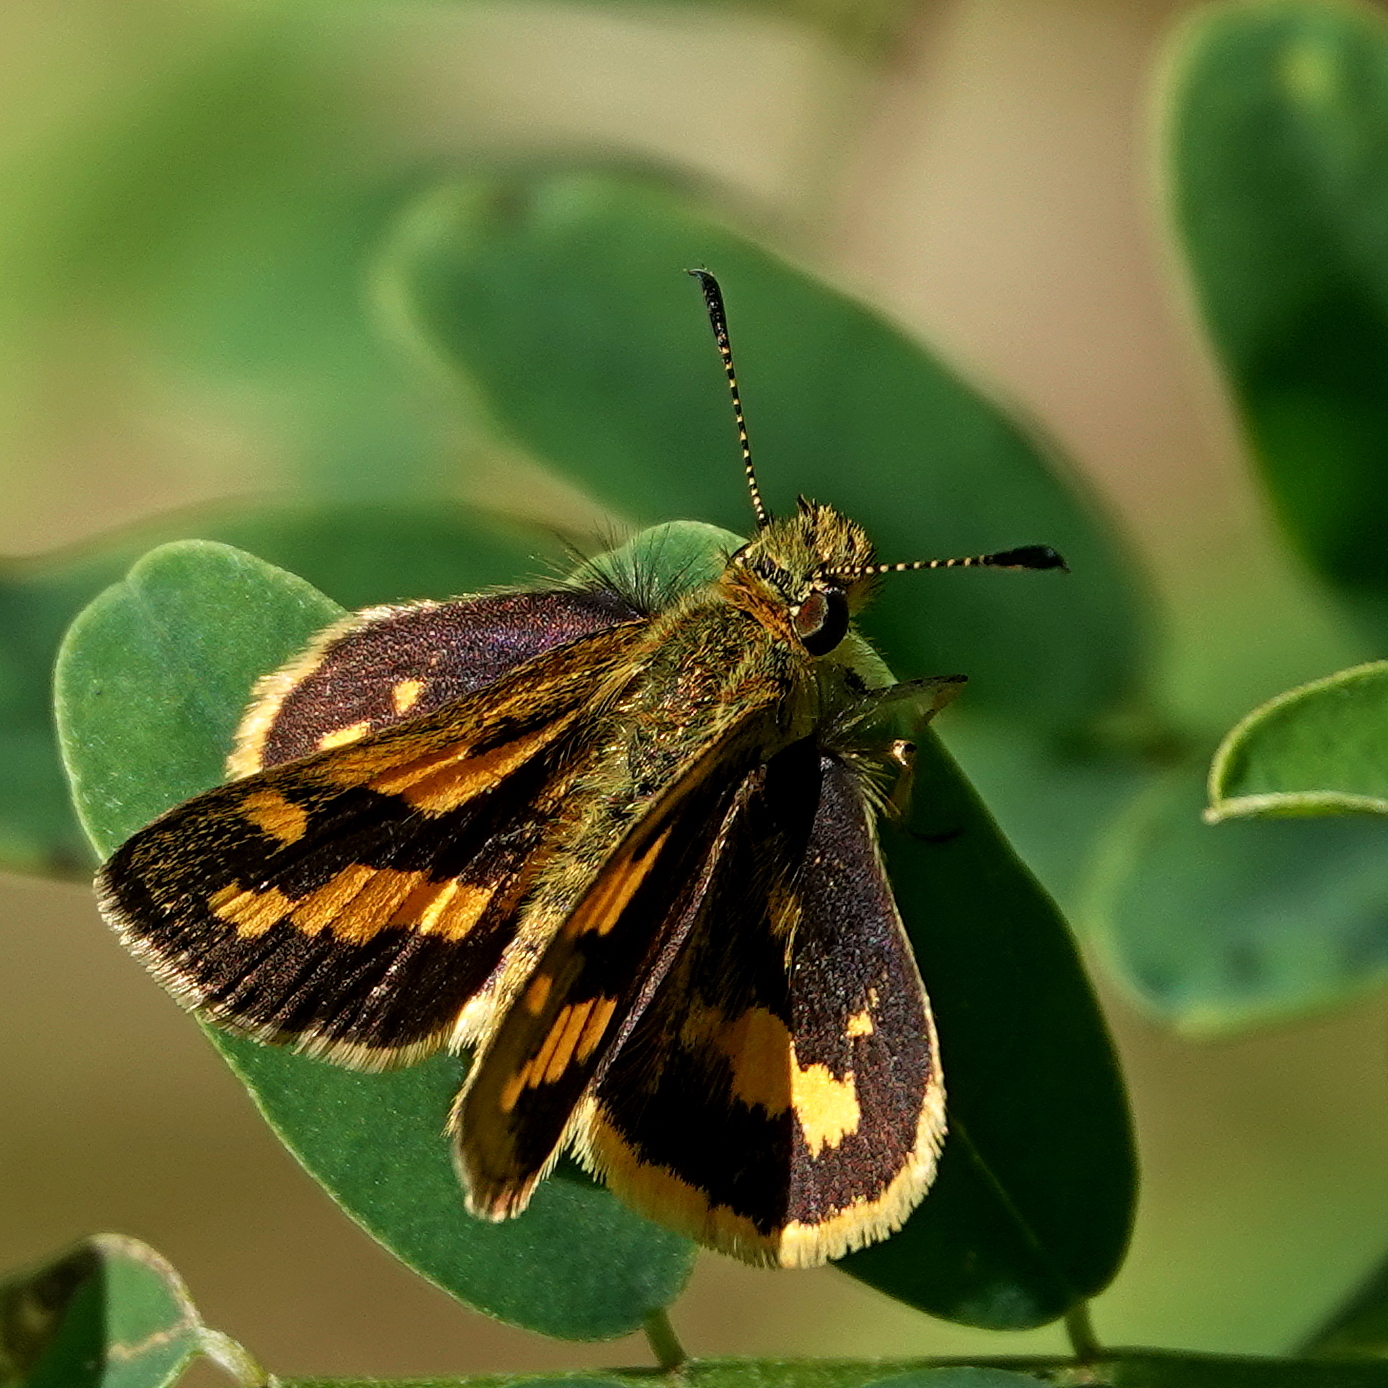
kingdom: Animalia
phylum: Arthropoda
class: Insecta
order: Lepidoptera
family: Hesperiidae
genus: Ocybadistes
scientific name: Ocybadistes walkeri
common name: Yellow-banded dart
